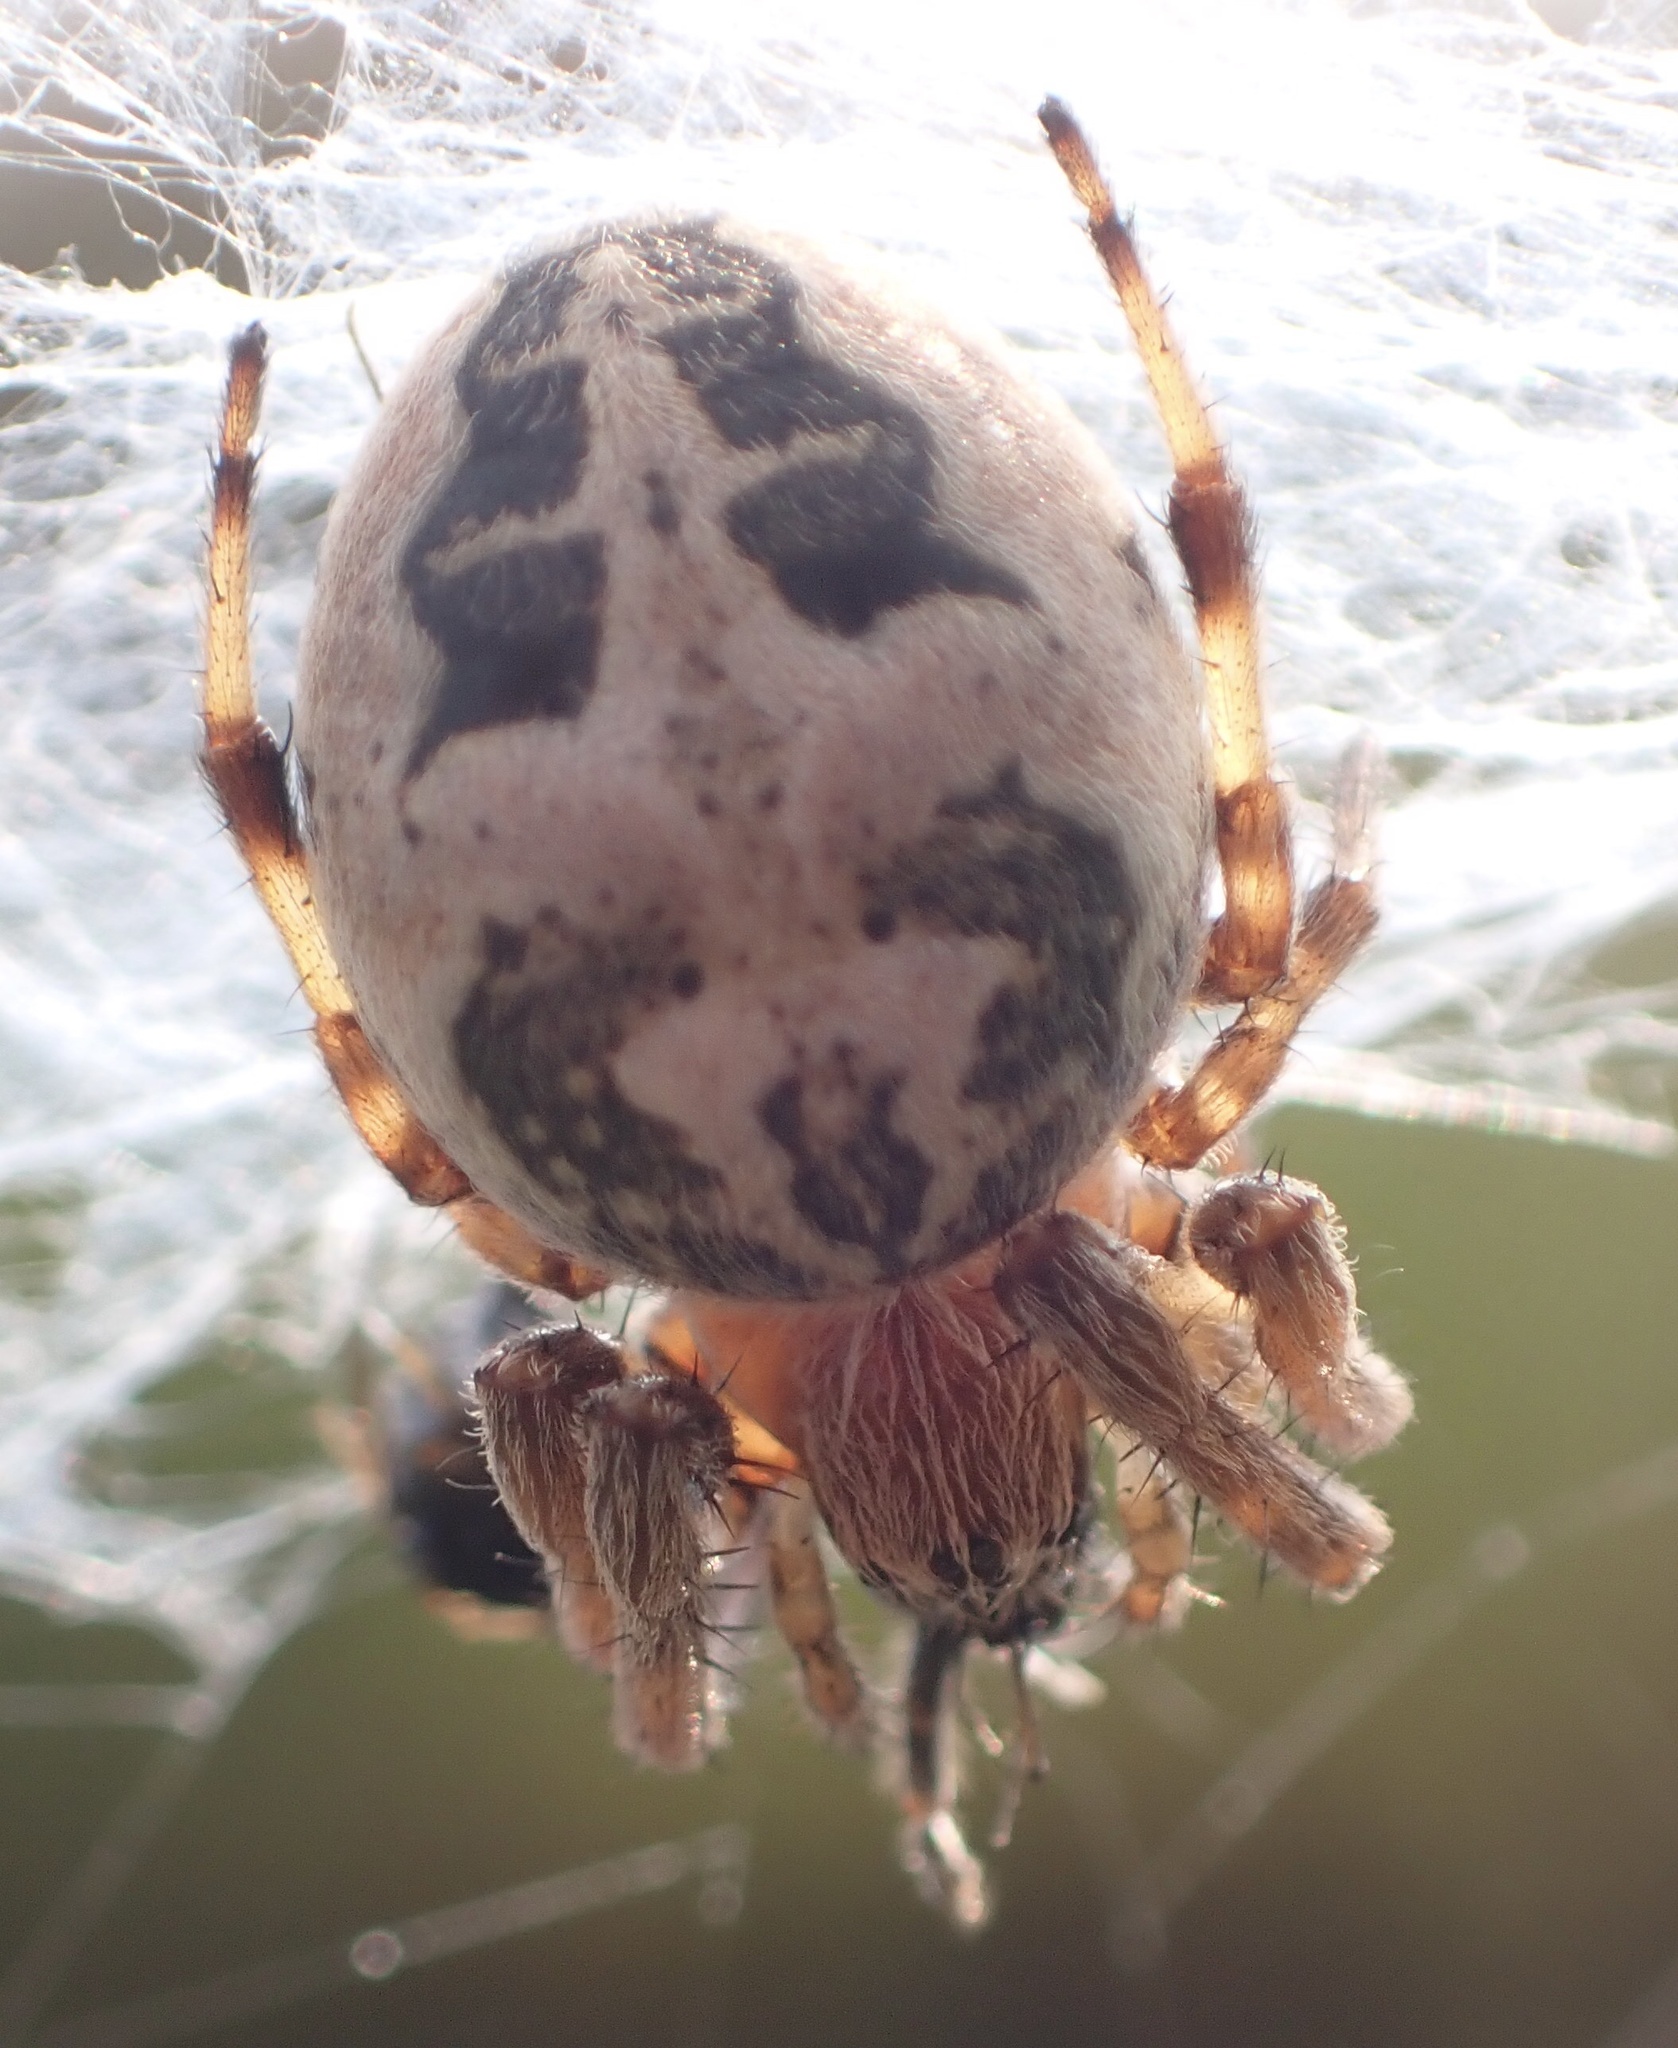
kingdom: Animalia
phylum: Arthropoda
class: Arachnida
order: Araneae
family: Araneidae
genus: Larinioides
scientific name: Larinioides cornutus
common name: Furrow orbweaver
